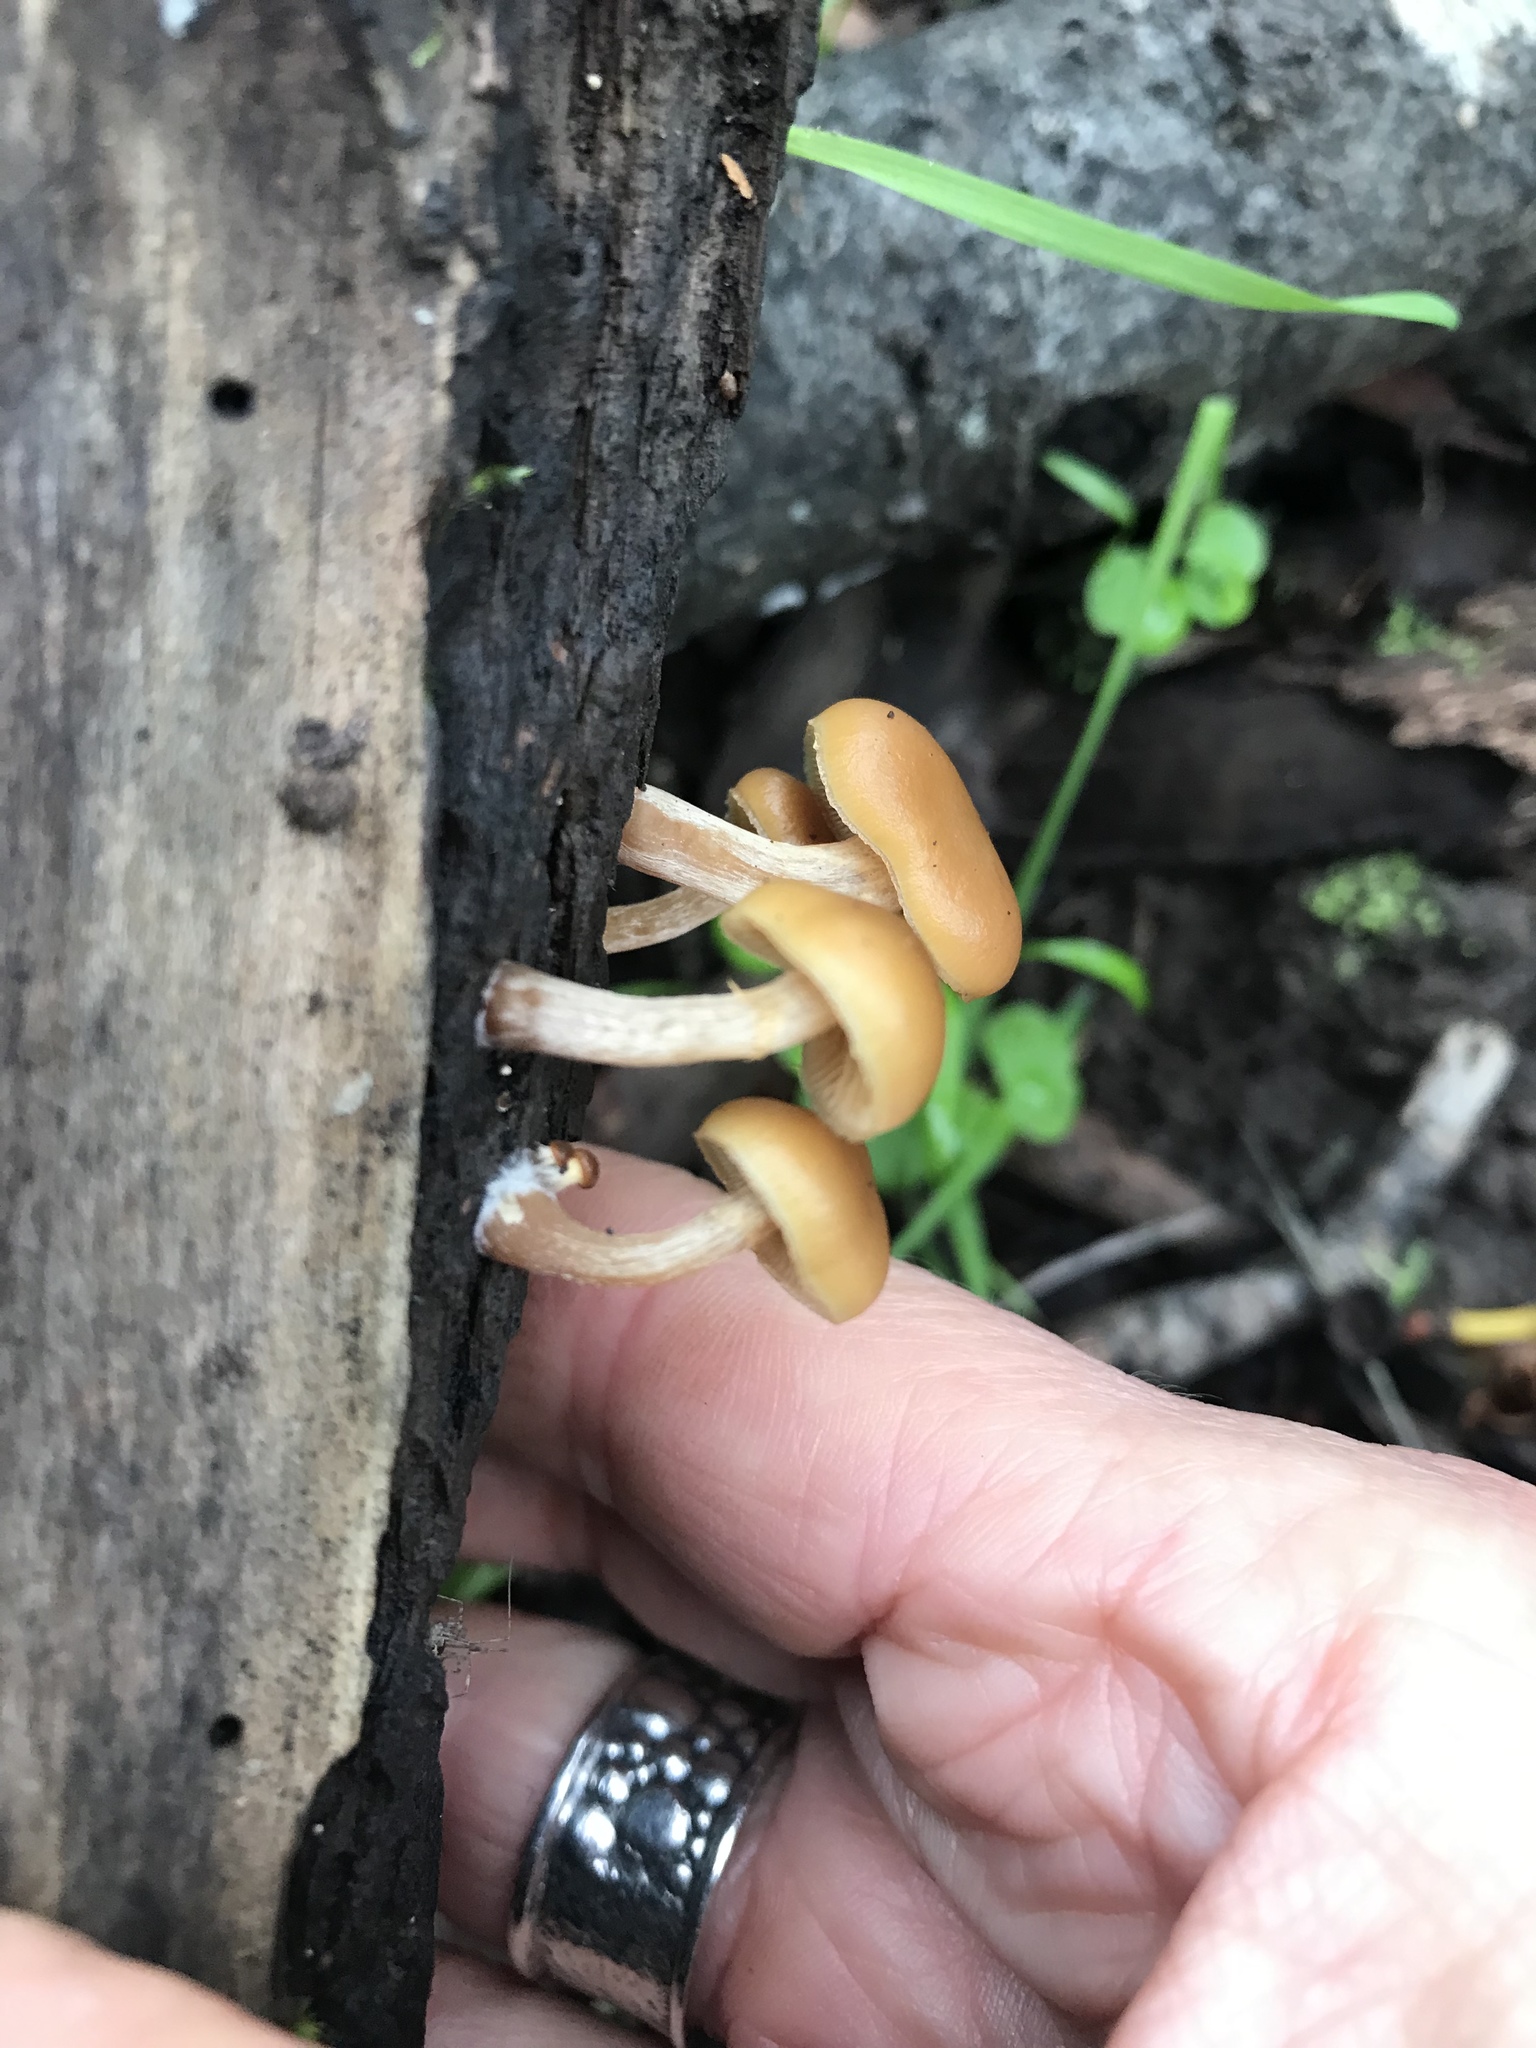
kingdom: Fungi
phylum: Basidiomycota
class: Agaricomycetes
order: Agaricales
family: Hymenogastraceae
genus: Galerina
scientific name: Galerina marginata
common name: Funeral bell
